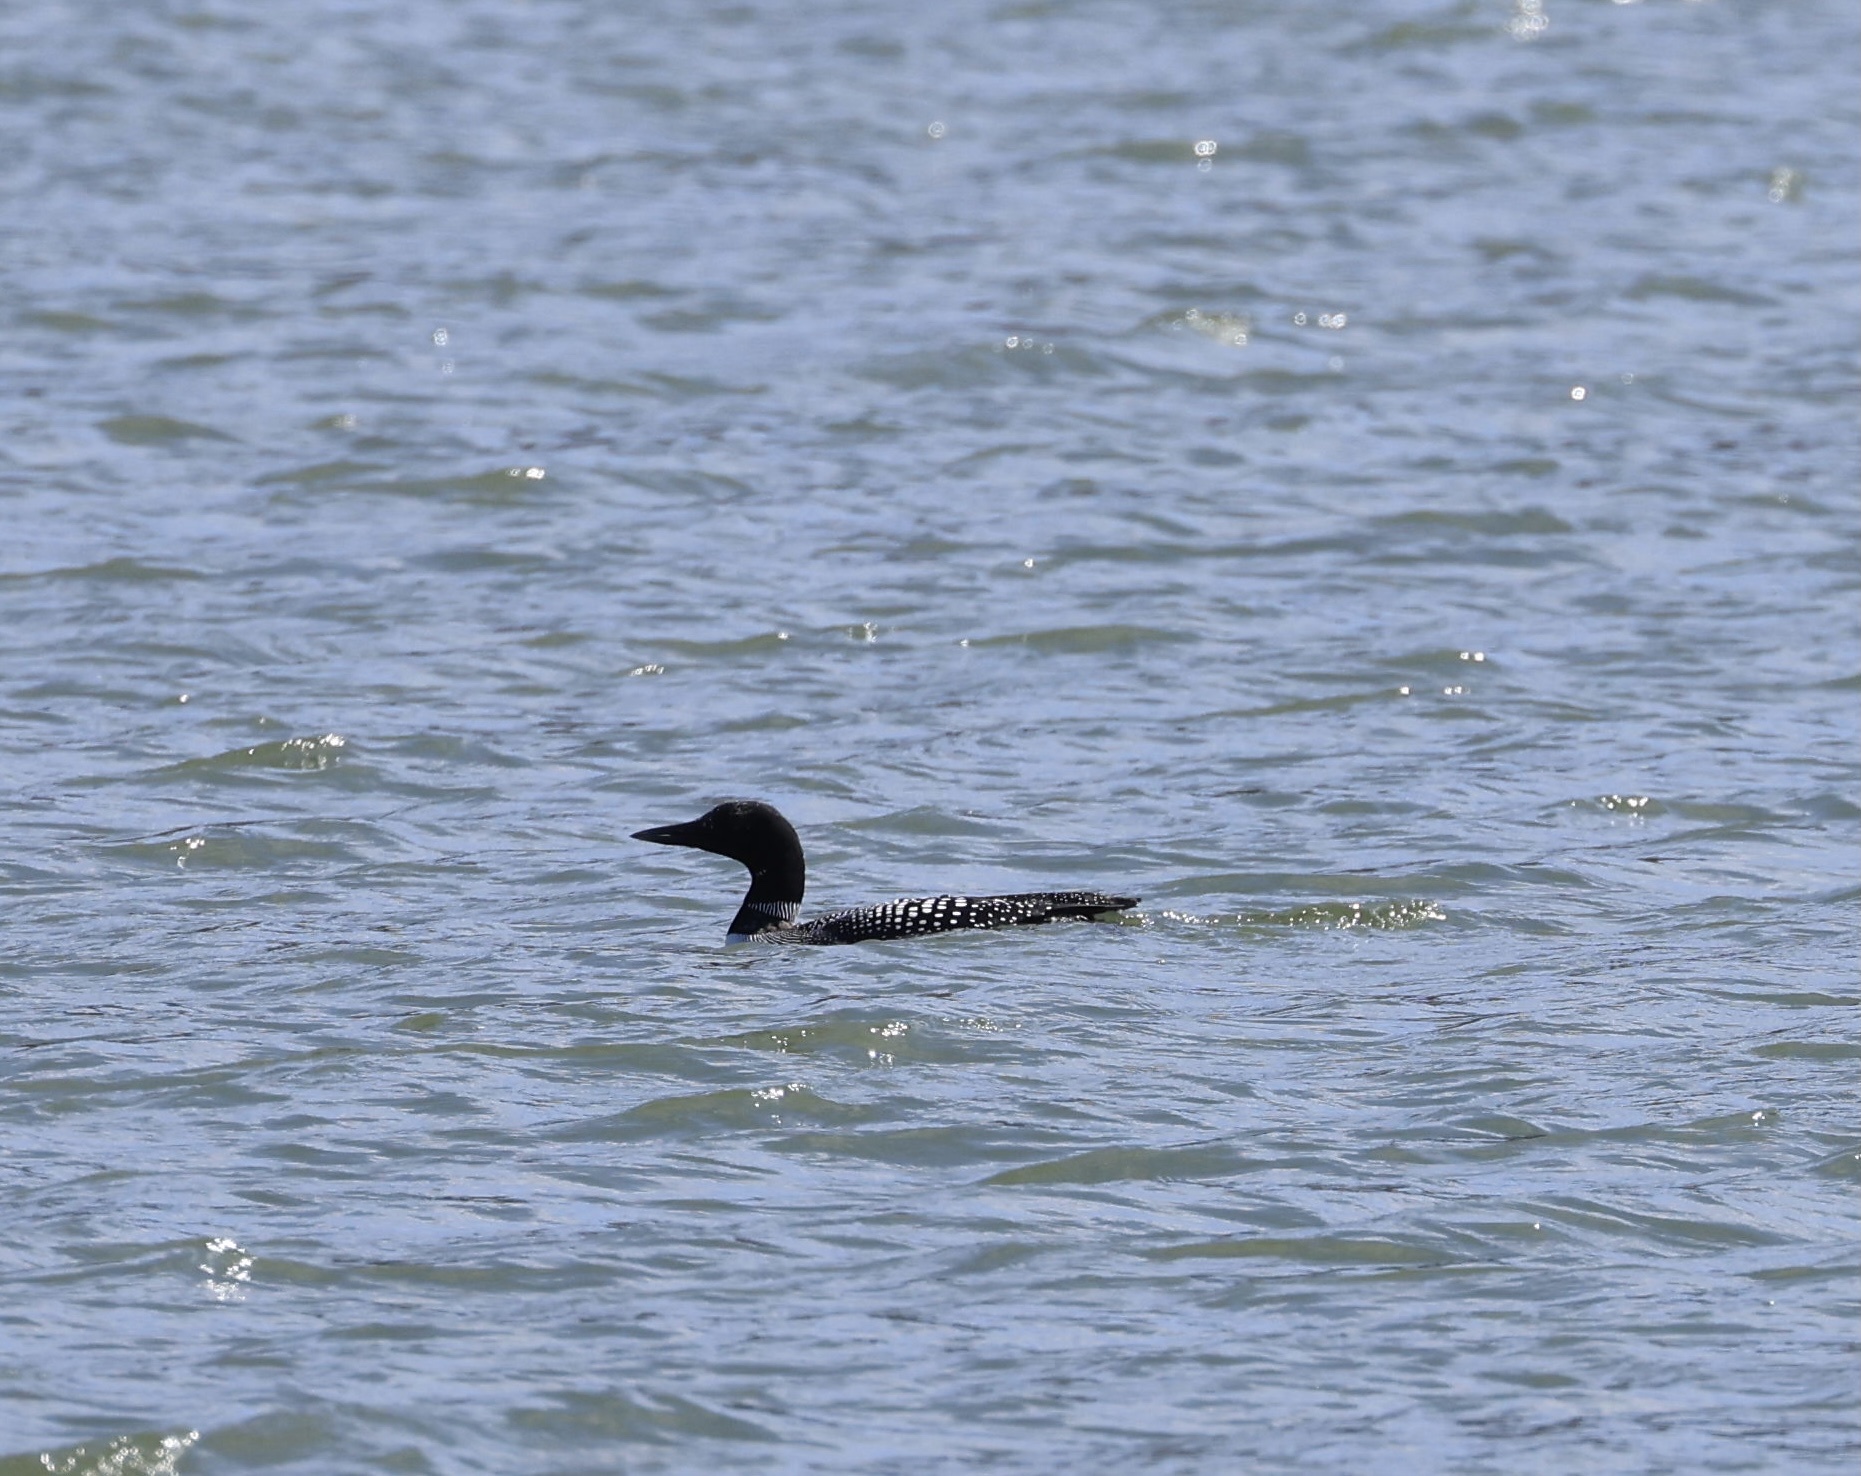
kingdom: Animalia
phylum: Chordata
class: Aves
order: Gaviiformes
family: Gaviidae
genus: Gavia
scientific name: Gavia immer
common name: Common loon
